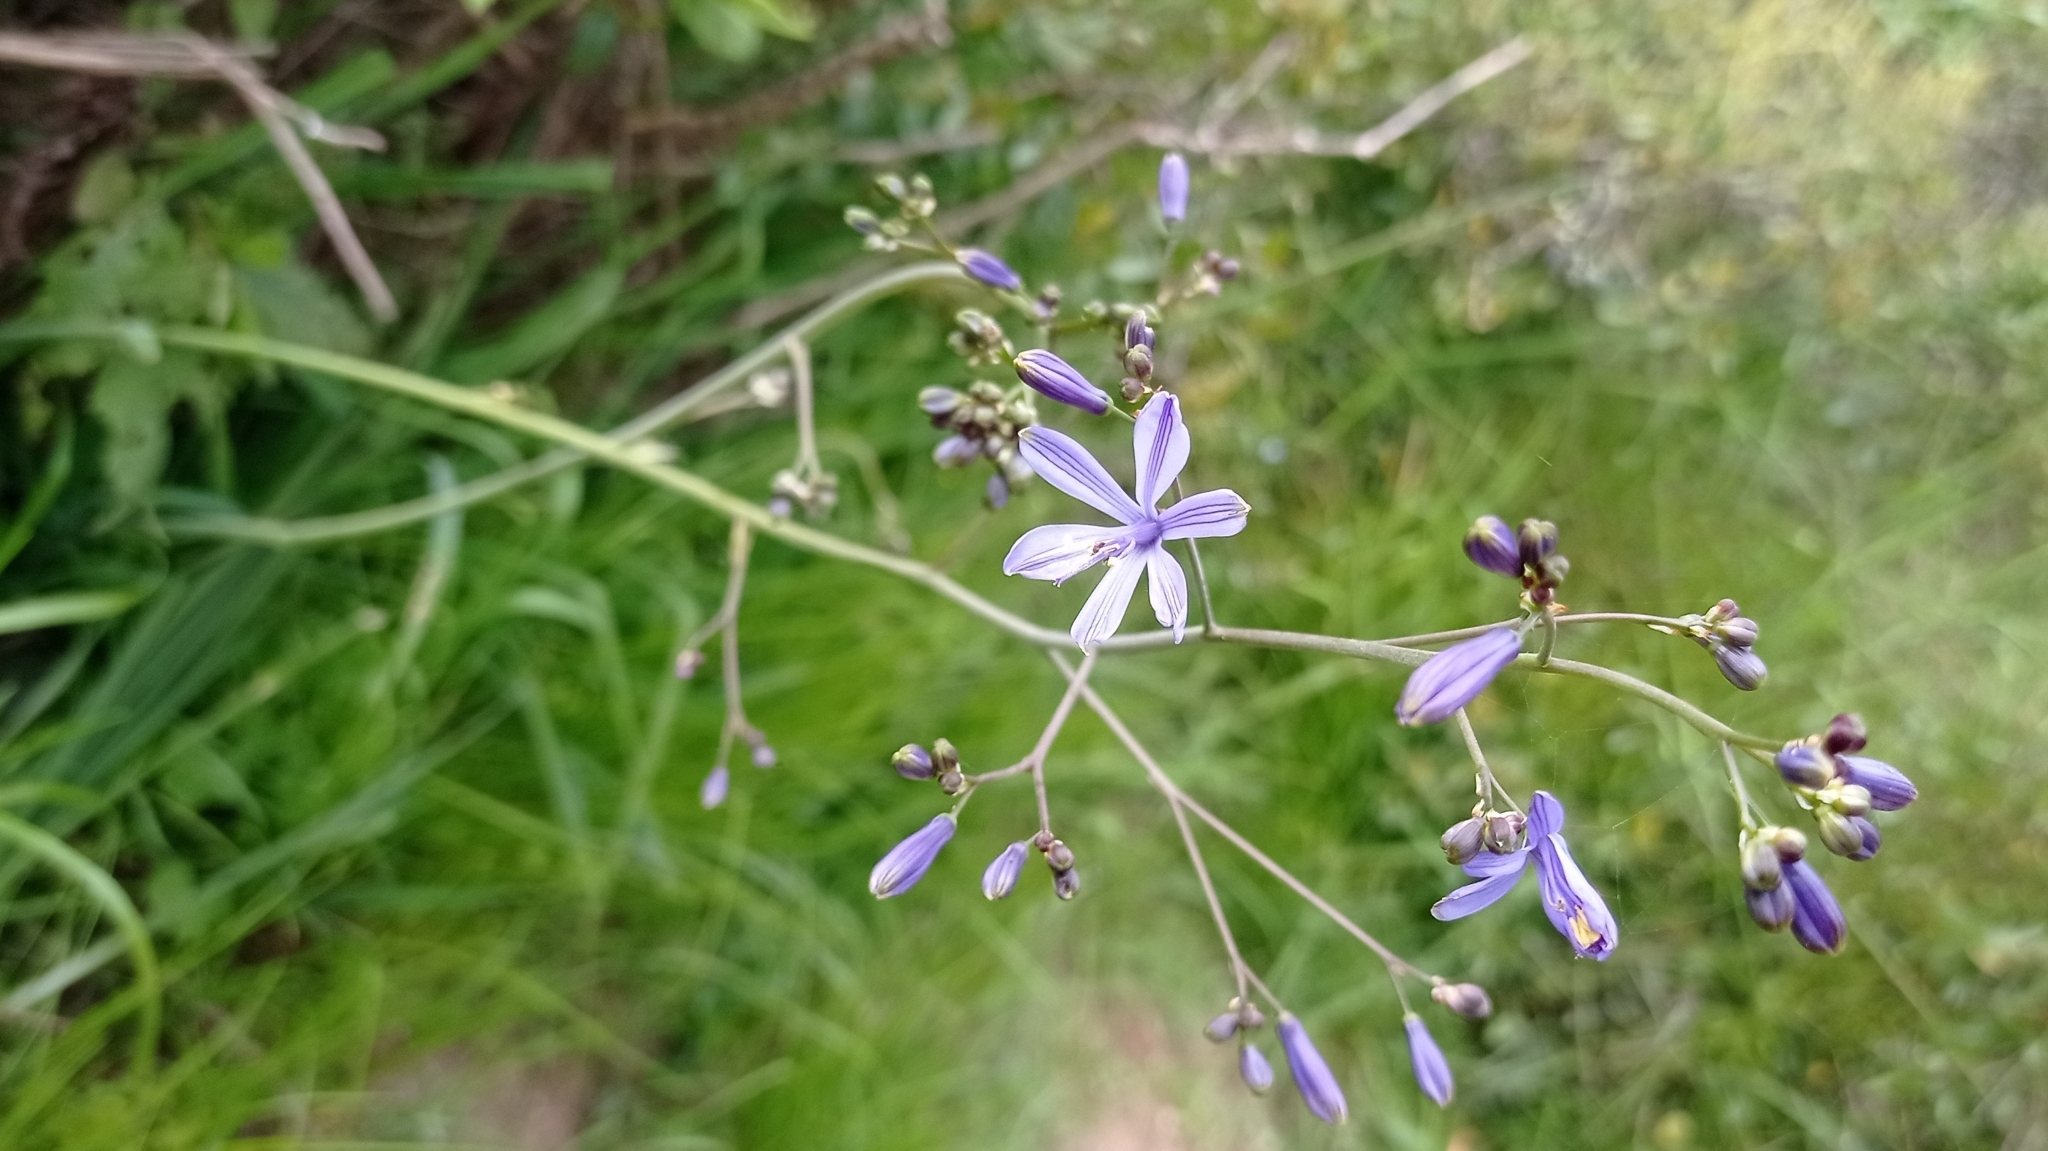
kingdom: Plantae
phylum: Tracheophyta
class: Liliopsida
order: Asparagales
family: Asphodelaceae
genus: Pasithea
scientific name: Pasithea caerulea
